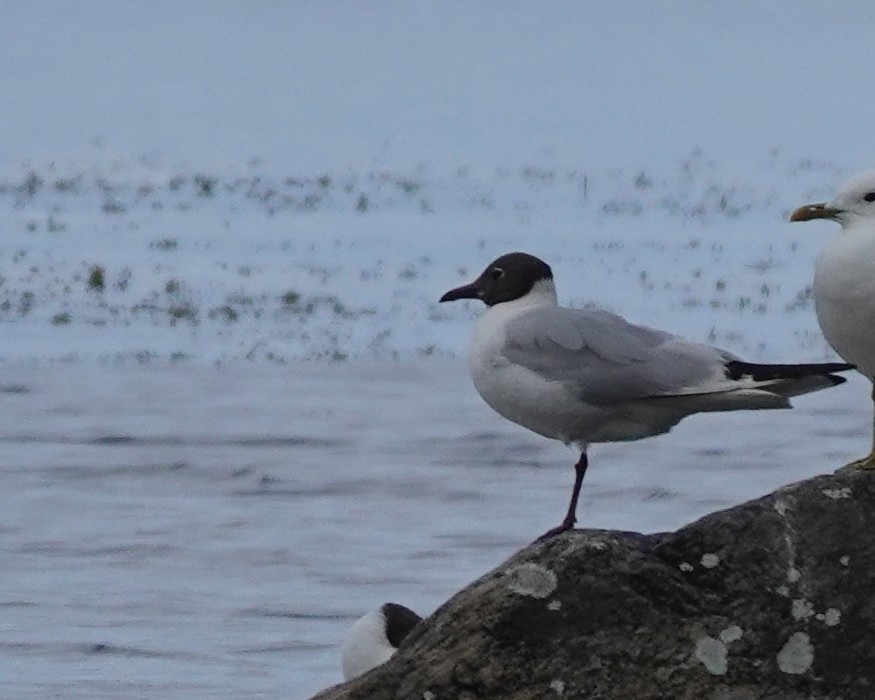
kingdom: Animalia
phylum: Chordata
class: Aves
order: Charadriiformes
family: Laridae
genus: Chroicocephalus
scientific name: Chroicocephalus ridibundus
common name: Black-headed gull
